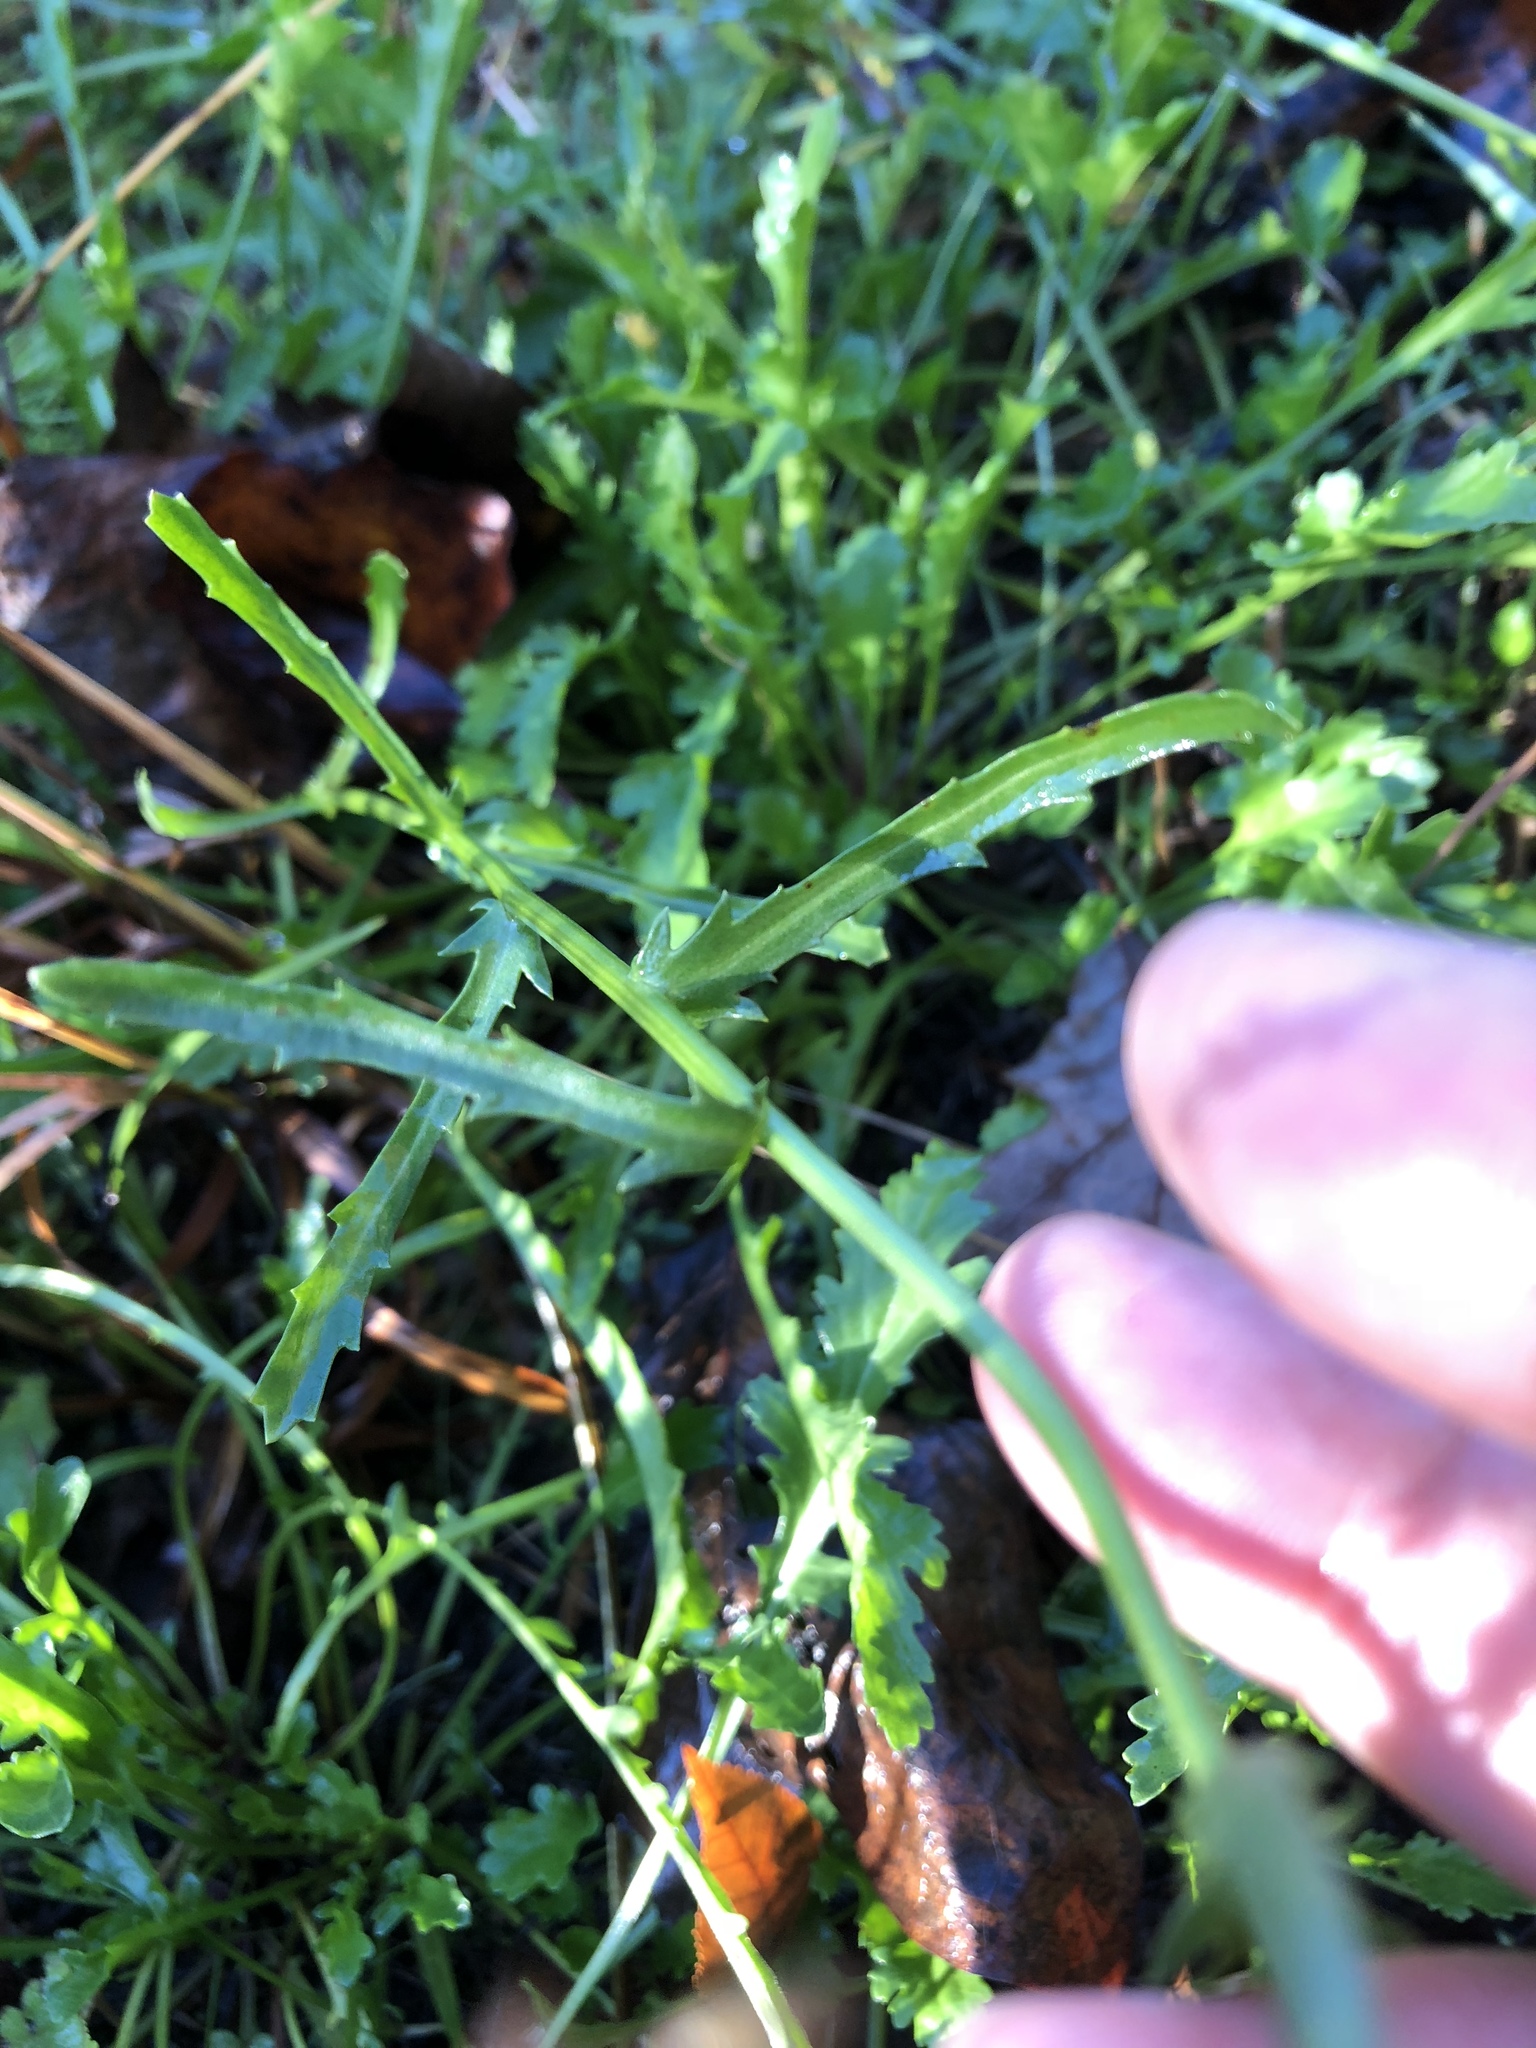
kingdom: Plantae
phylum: Tracheophyta
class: Magnoliopsida
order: Asterales
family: Asteraceae
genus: Leucanthemum
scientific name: Leucanthemum vulgare
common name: Oxeye daisy
